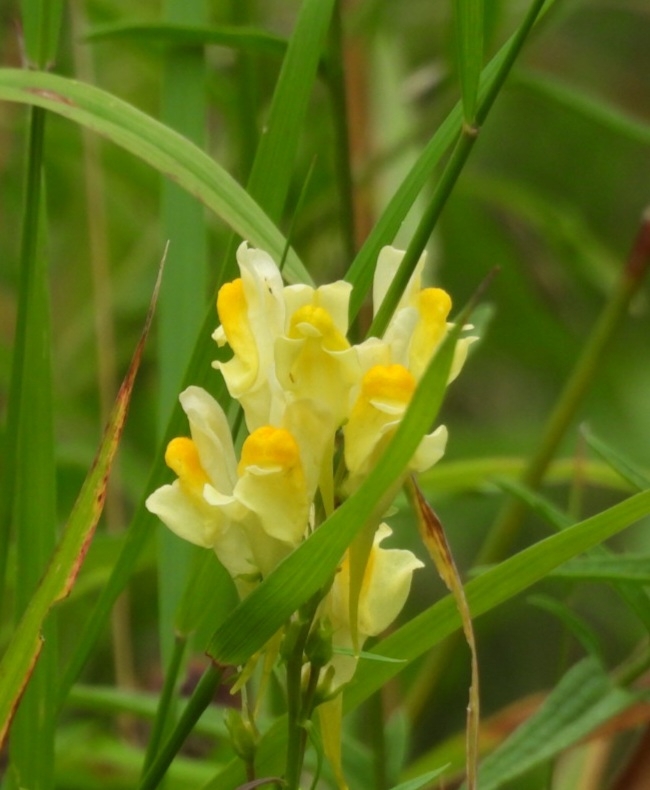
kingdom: Plantae
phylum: Tracheophyta
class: Magnoliopsida
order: Lamiales
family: Plantaginaceae
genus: Linaria
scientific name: Linaria vulgaris
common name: Butter and eggs
